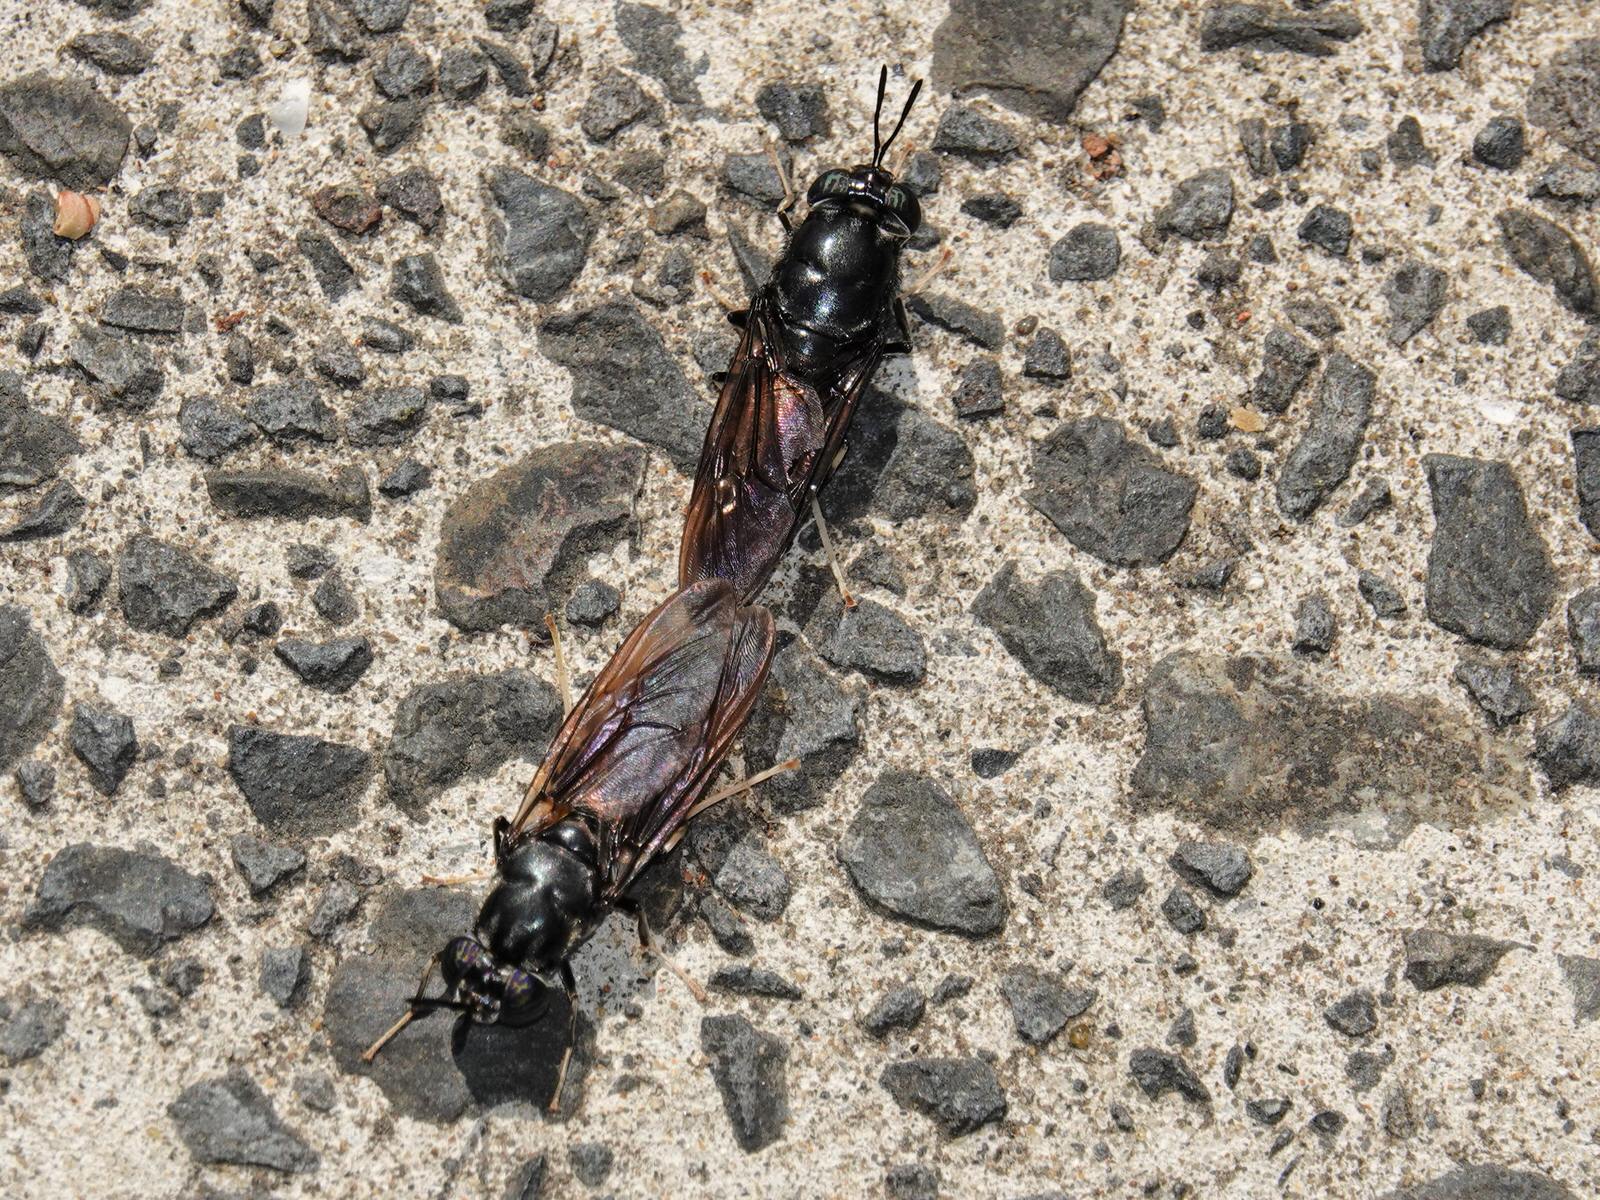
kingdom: Animalia
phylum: Arthropoda
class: Insecta
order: Diptera
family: Stratiomyidae
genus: Hermetia
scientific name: Hermetia illucens
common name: Black soldier fly
